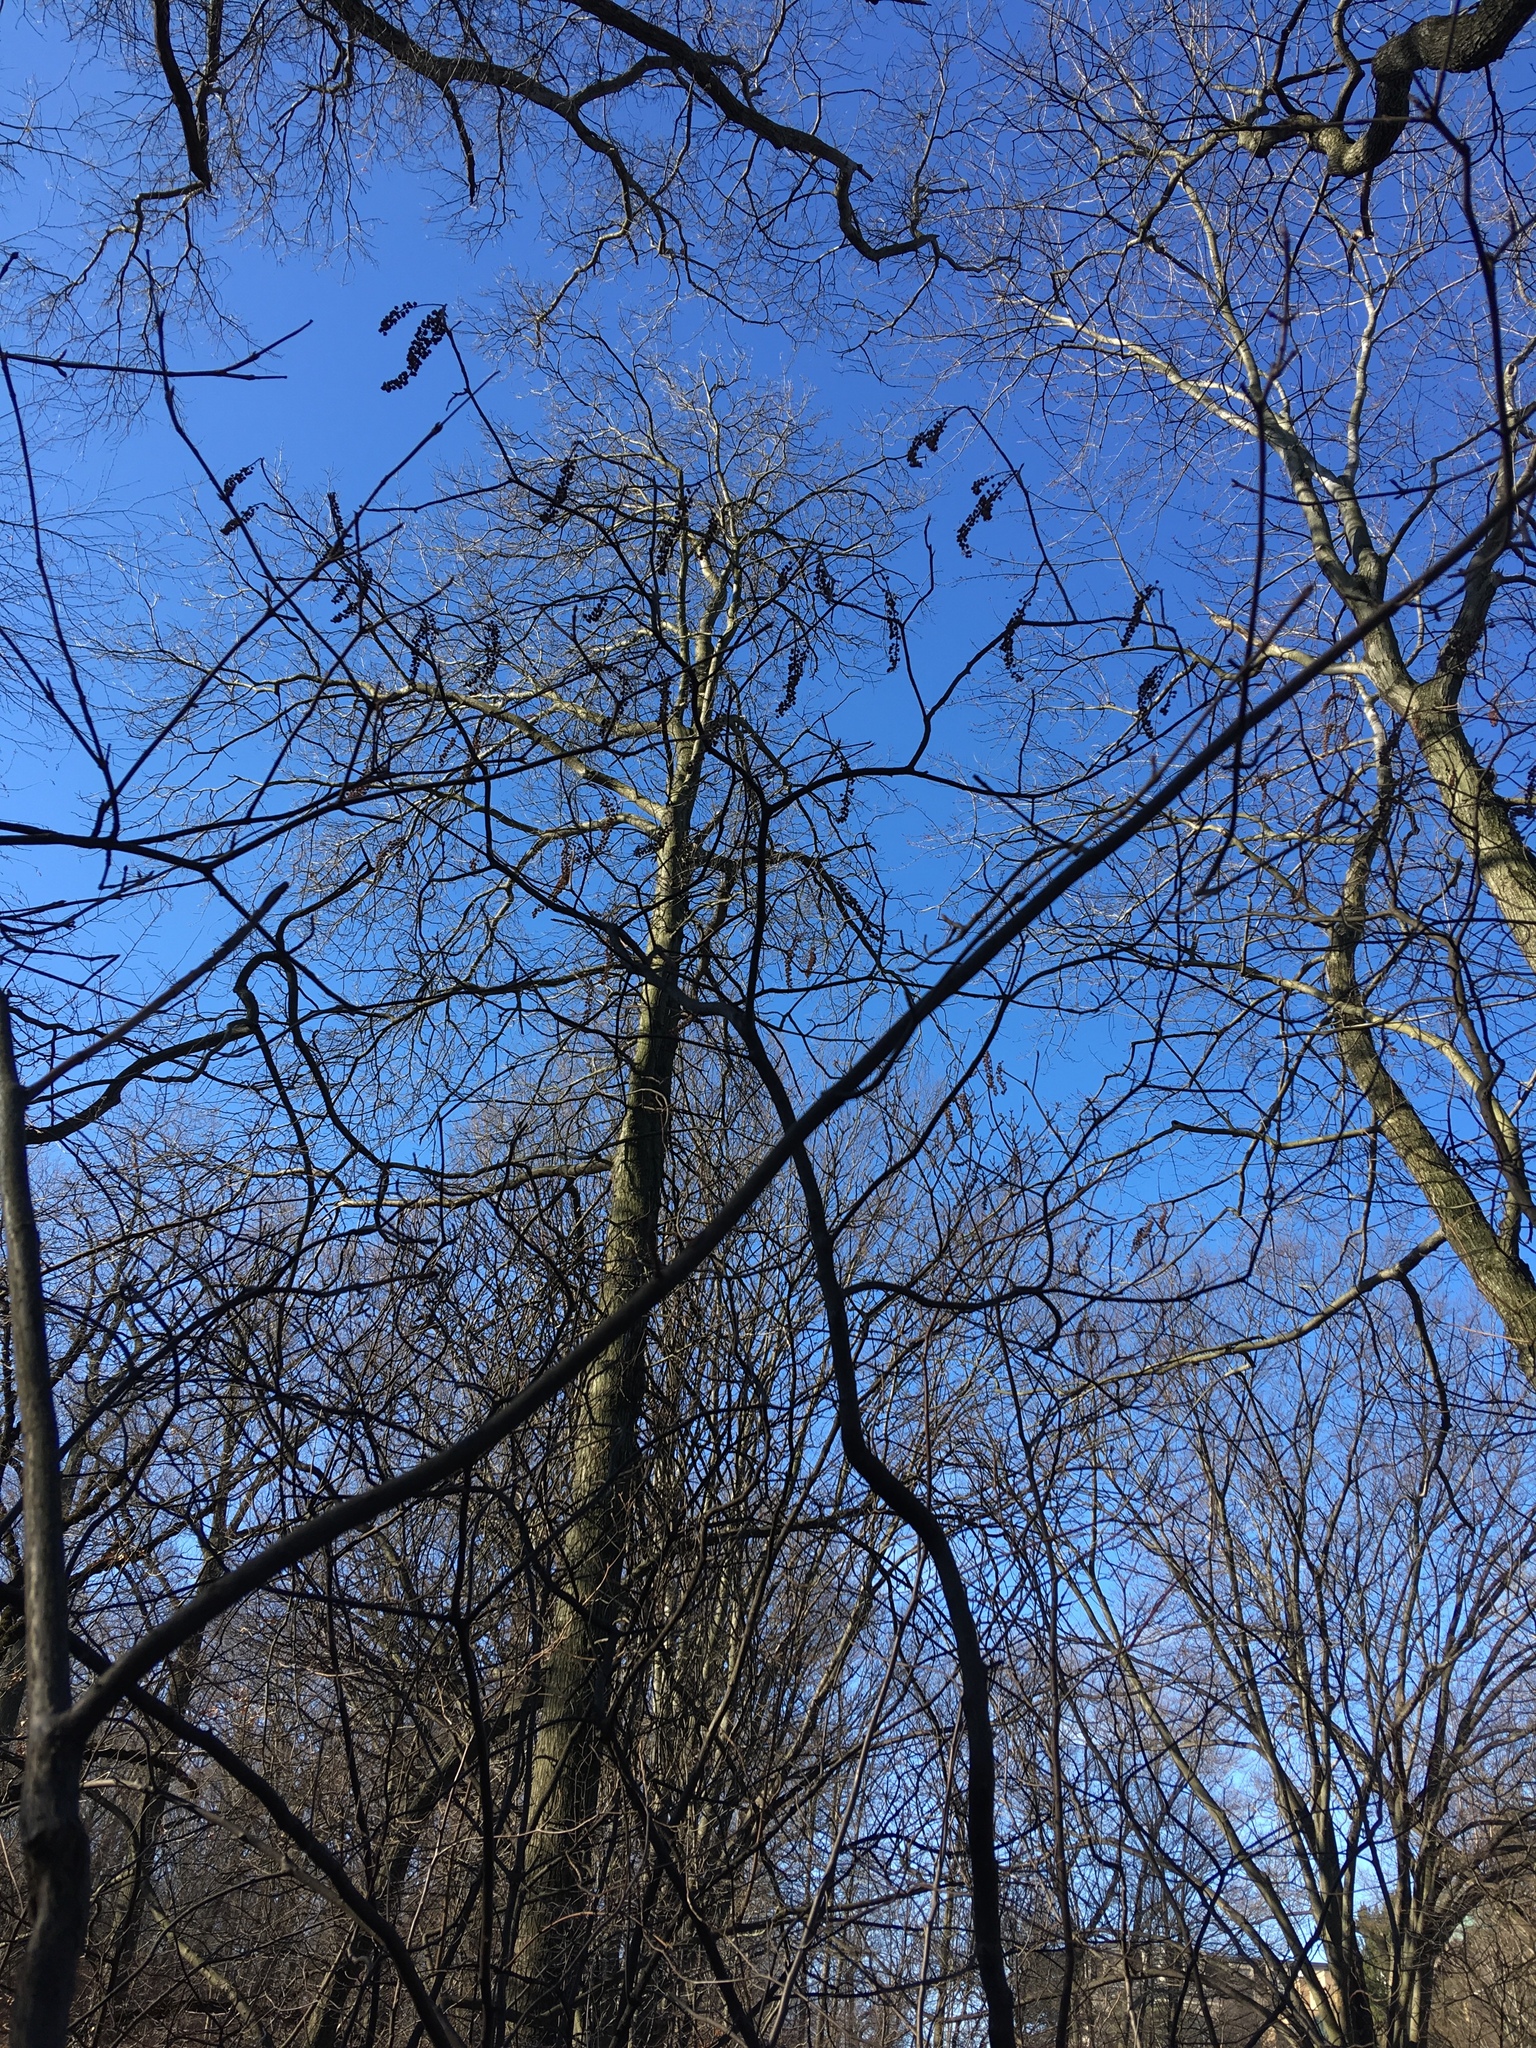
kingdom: Plantae
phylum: Tracheophyta
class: Magnoliopsida
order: Ericales
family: Clethraceae
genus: Clethra
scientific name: Clethra alnifolia
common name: Sweet pepperbush
